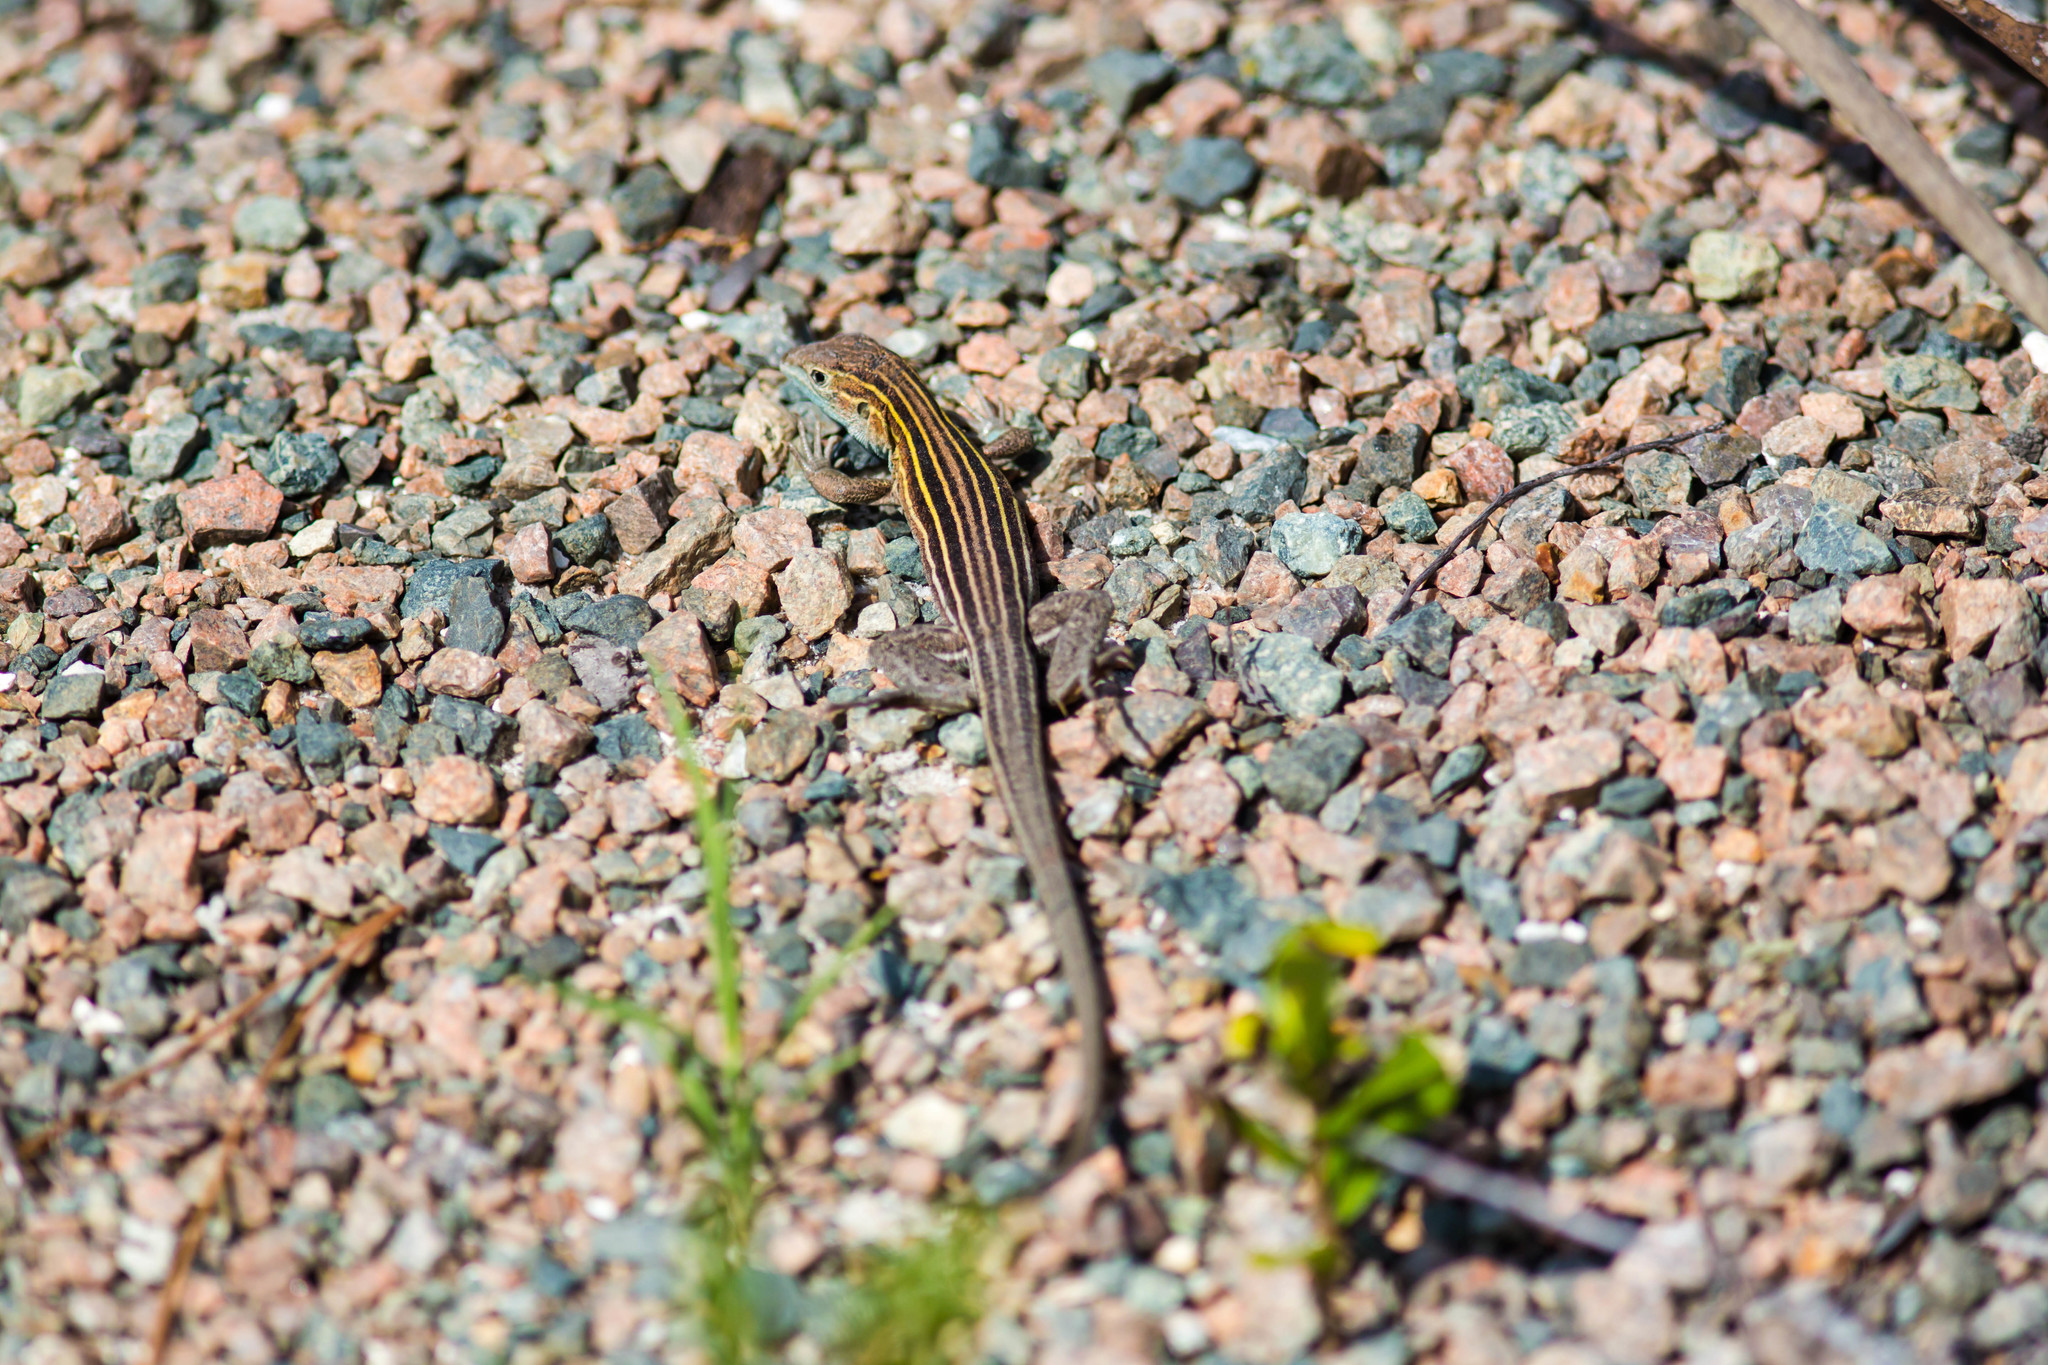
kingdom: Animalia
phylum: Chordata
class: Squamata
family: Teiidae
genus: Aspidoscelis
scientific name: Aspidoscelis sexlineatus
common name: Six-lined racerunner
